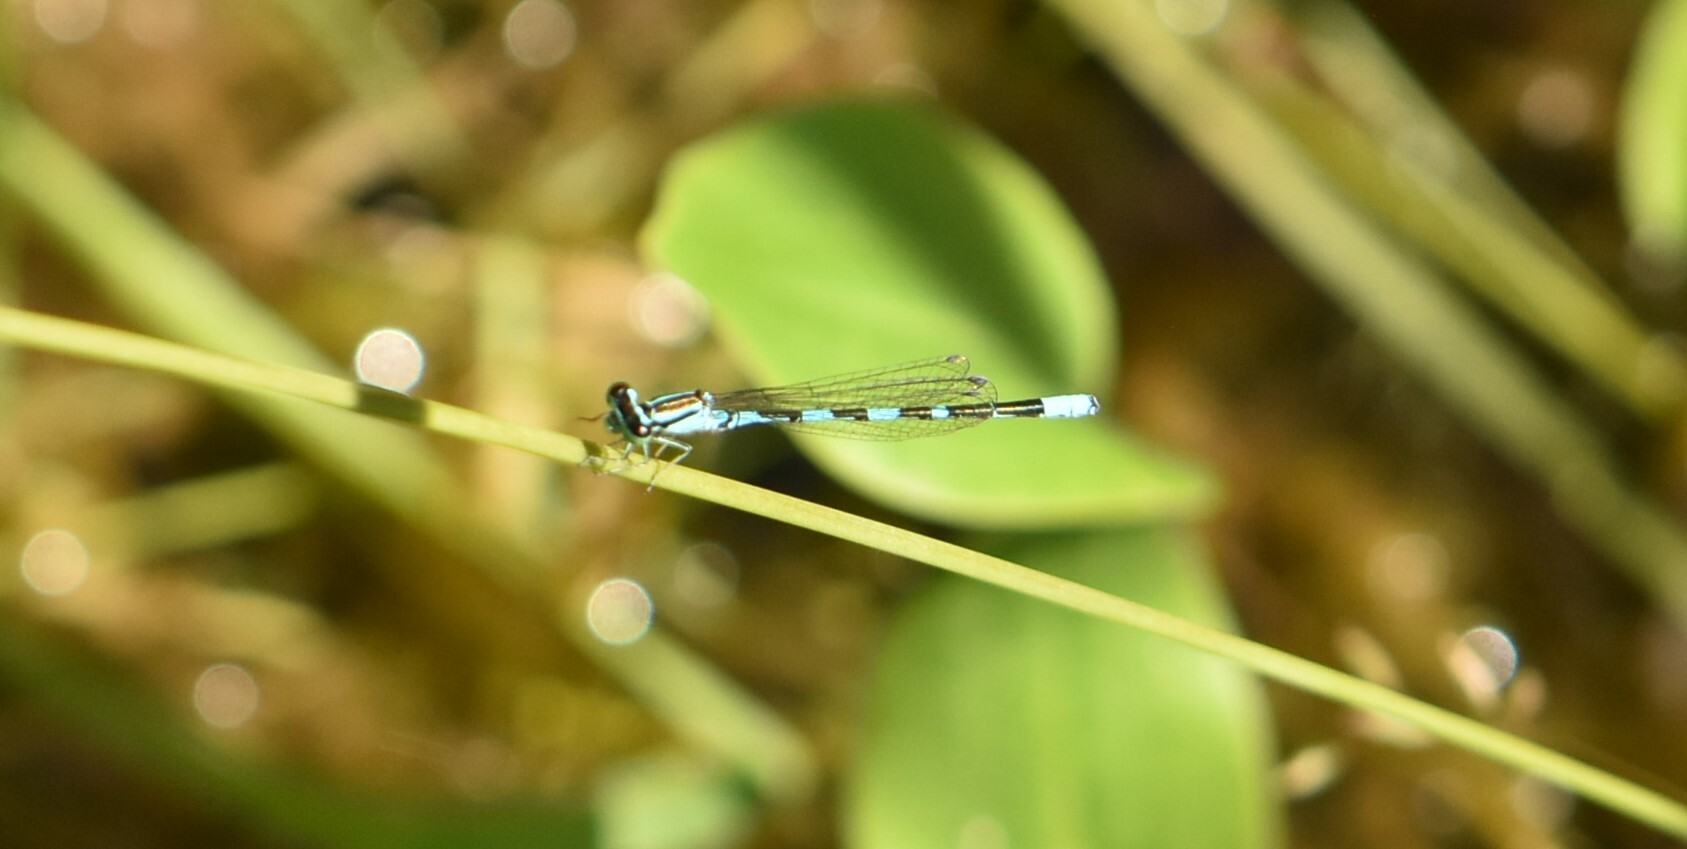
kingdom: Animalia
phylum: Arthropoda
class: Insecta
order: Odonata
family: Coenagrionidae
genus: Coenagrion
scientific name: Coenagrion johanssoni
